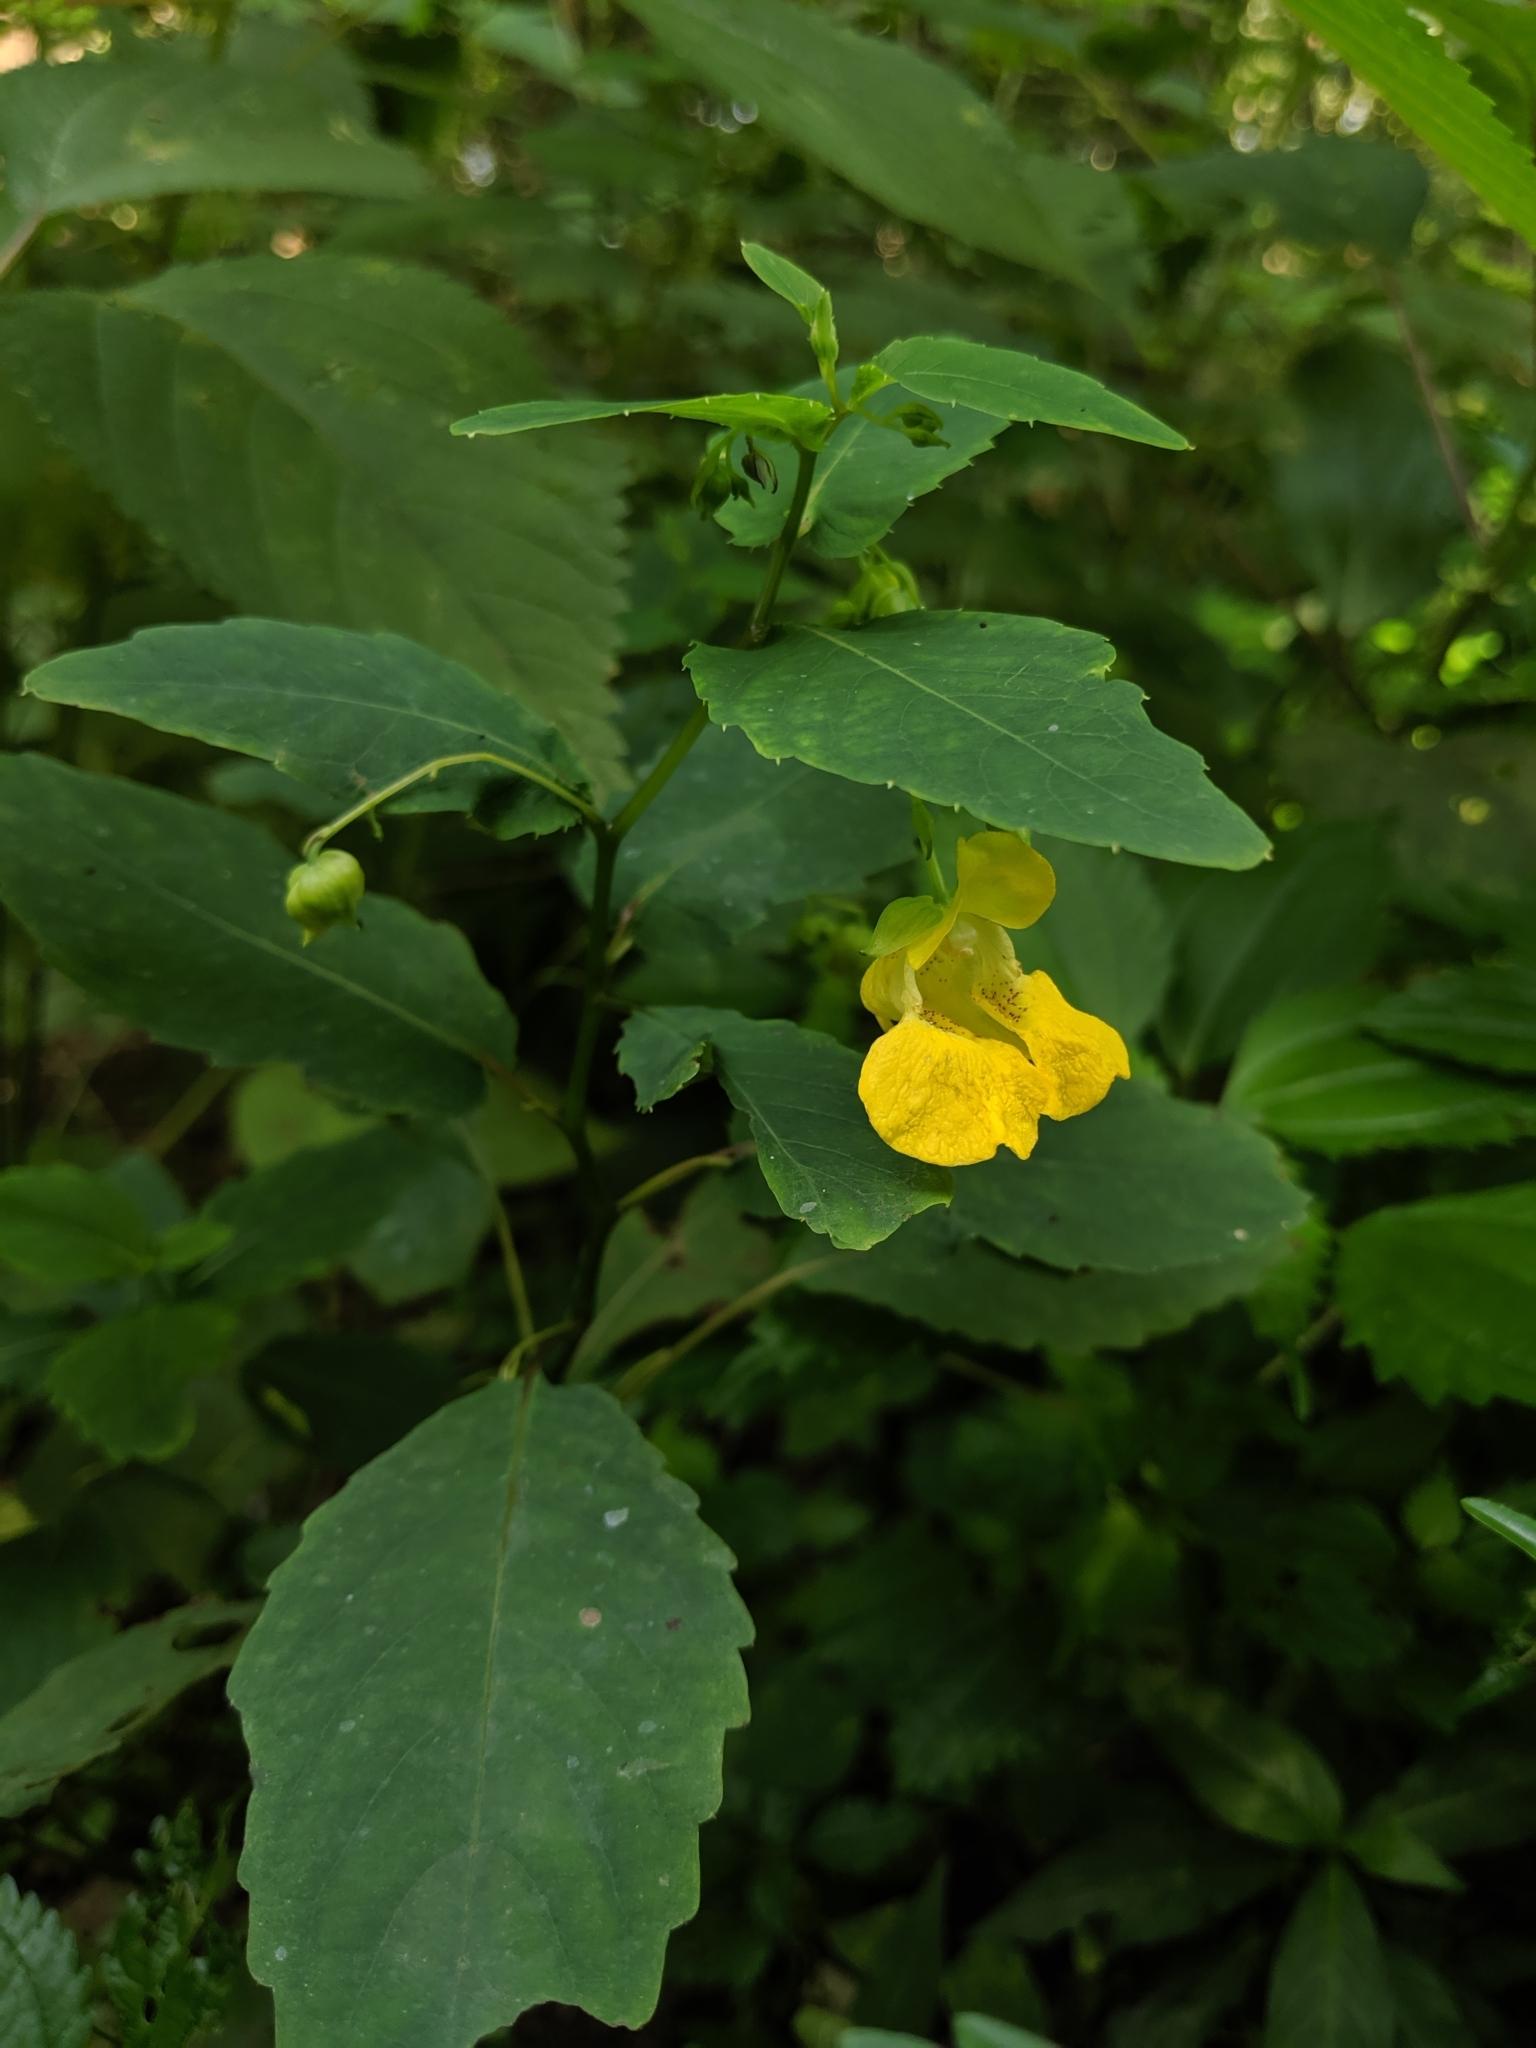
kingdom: Plantae
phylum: Tracheophyta
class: Magnoliopsida
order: Ericales
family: Balsaminaceae
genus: Impatiens
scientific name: Impatiens pallida
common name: Pale snapweed
